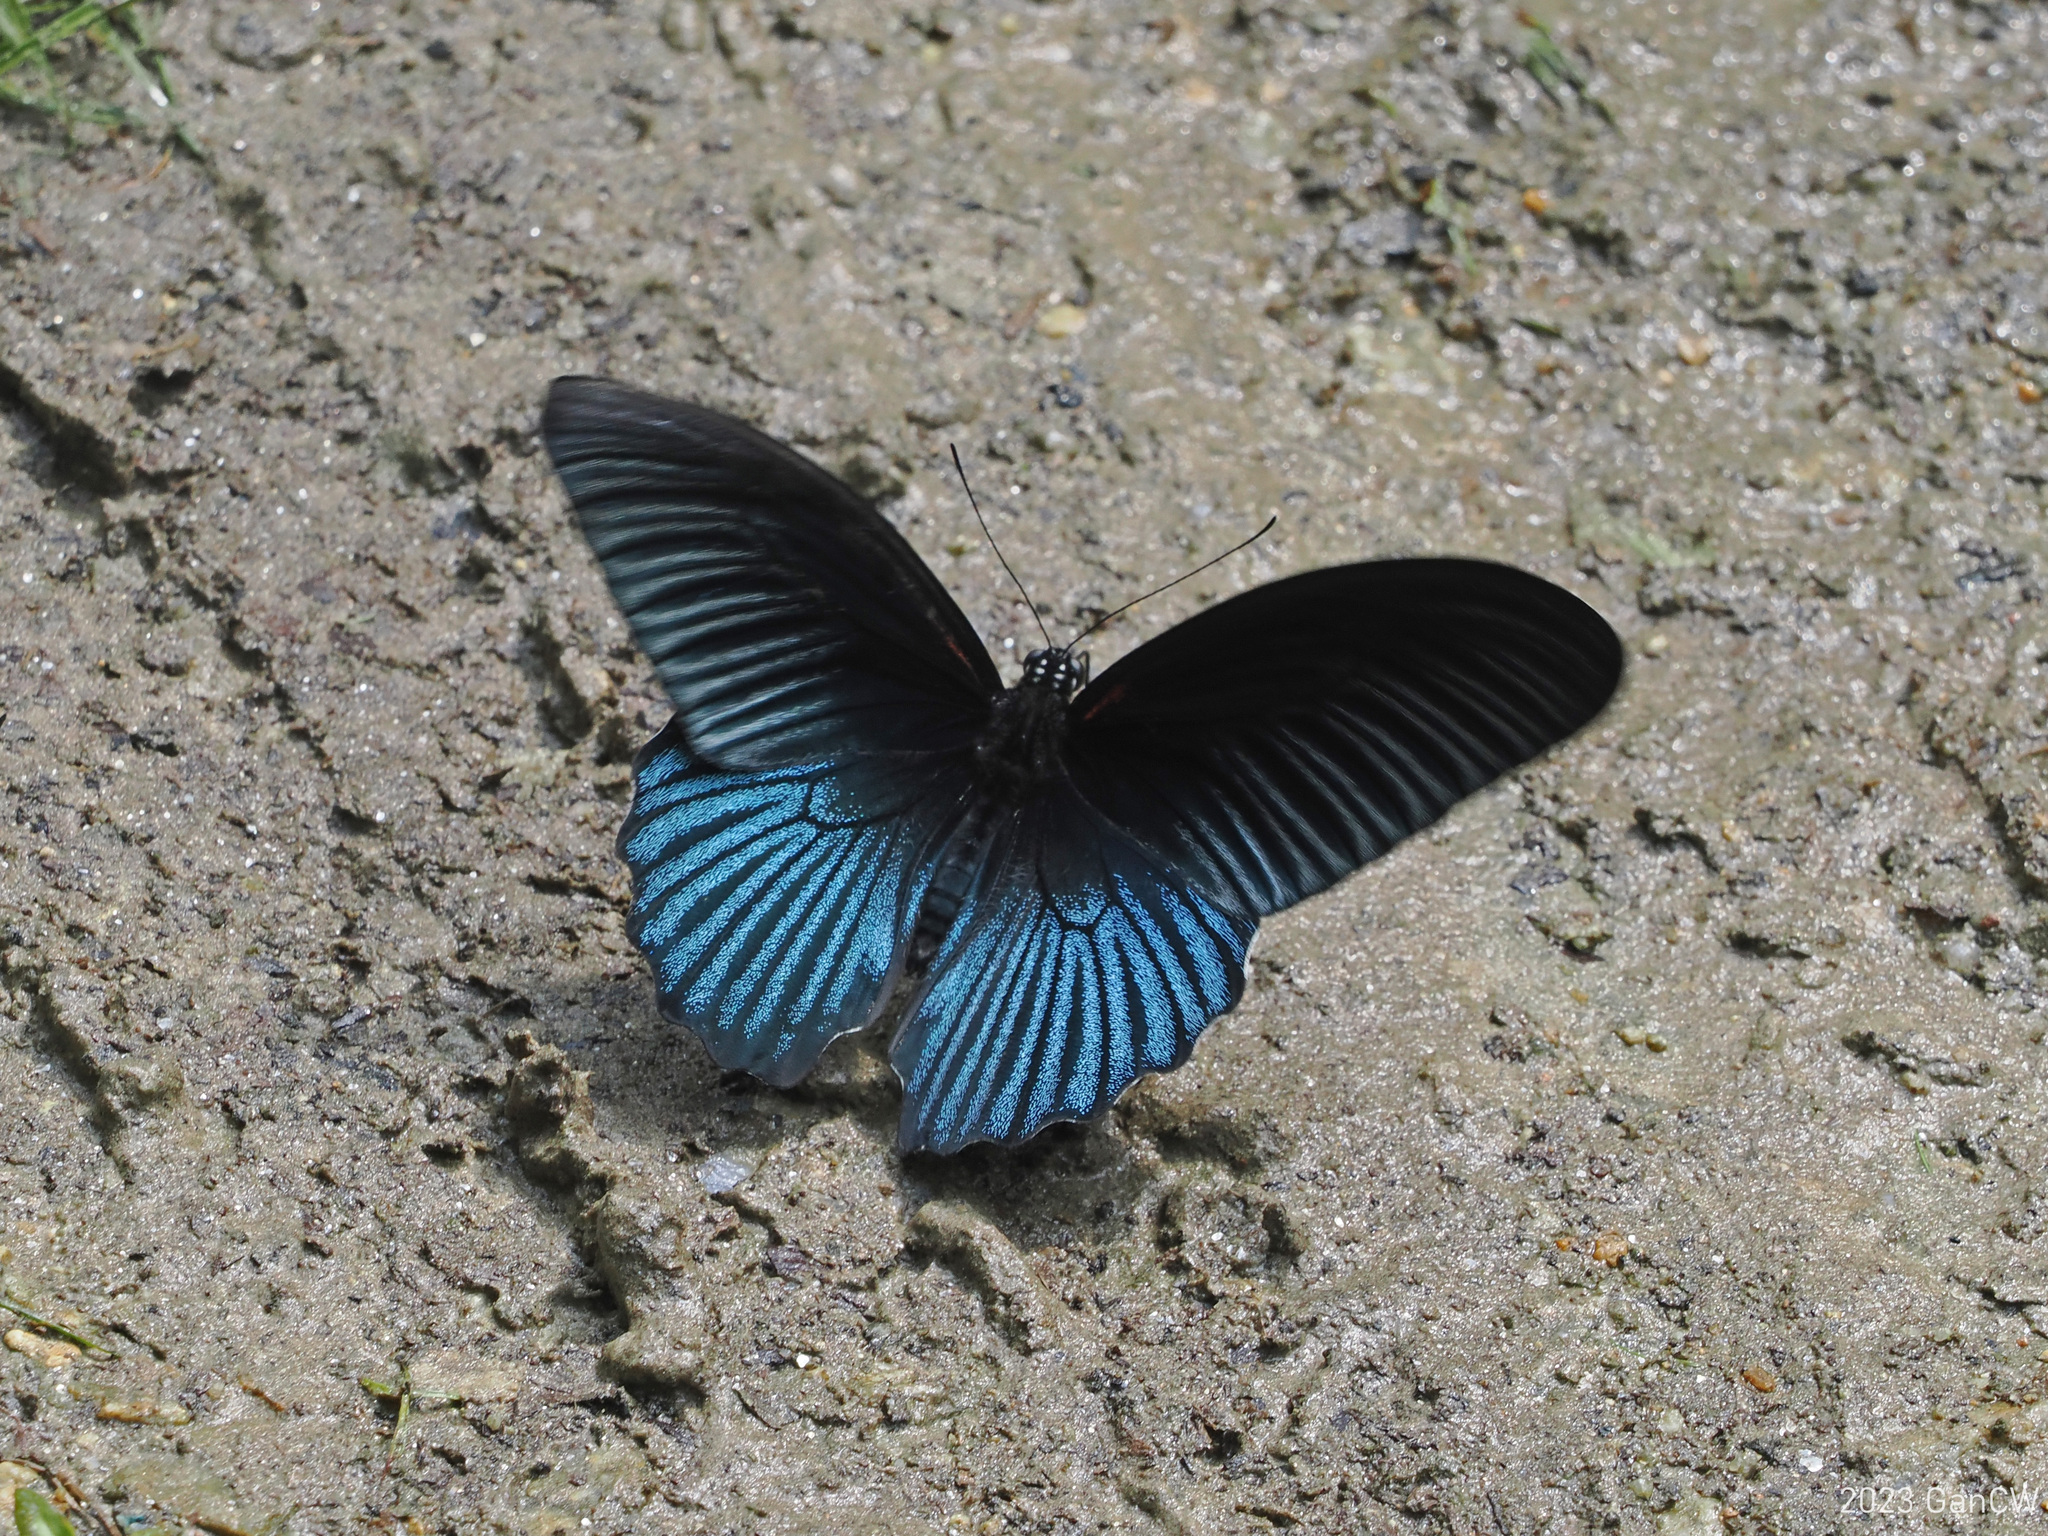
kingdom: Animalia
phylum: Arthropoda
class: Insecta
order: Lepidoptera
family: Papilionidae
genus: Papilio
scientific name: Papilio memnon
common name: Great mormon
